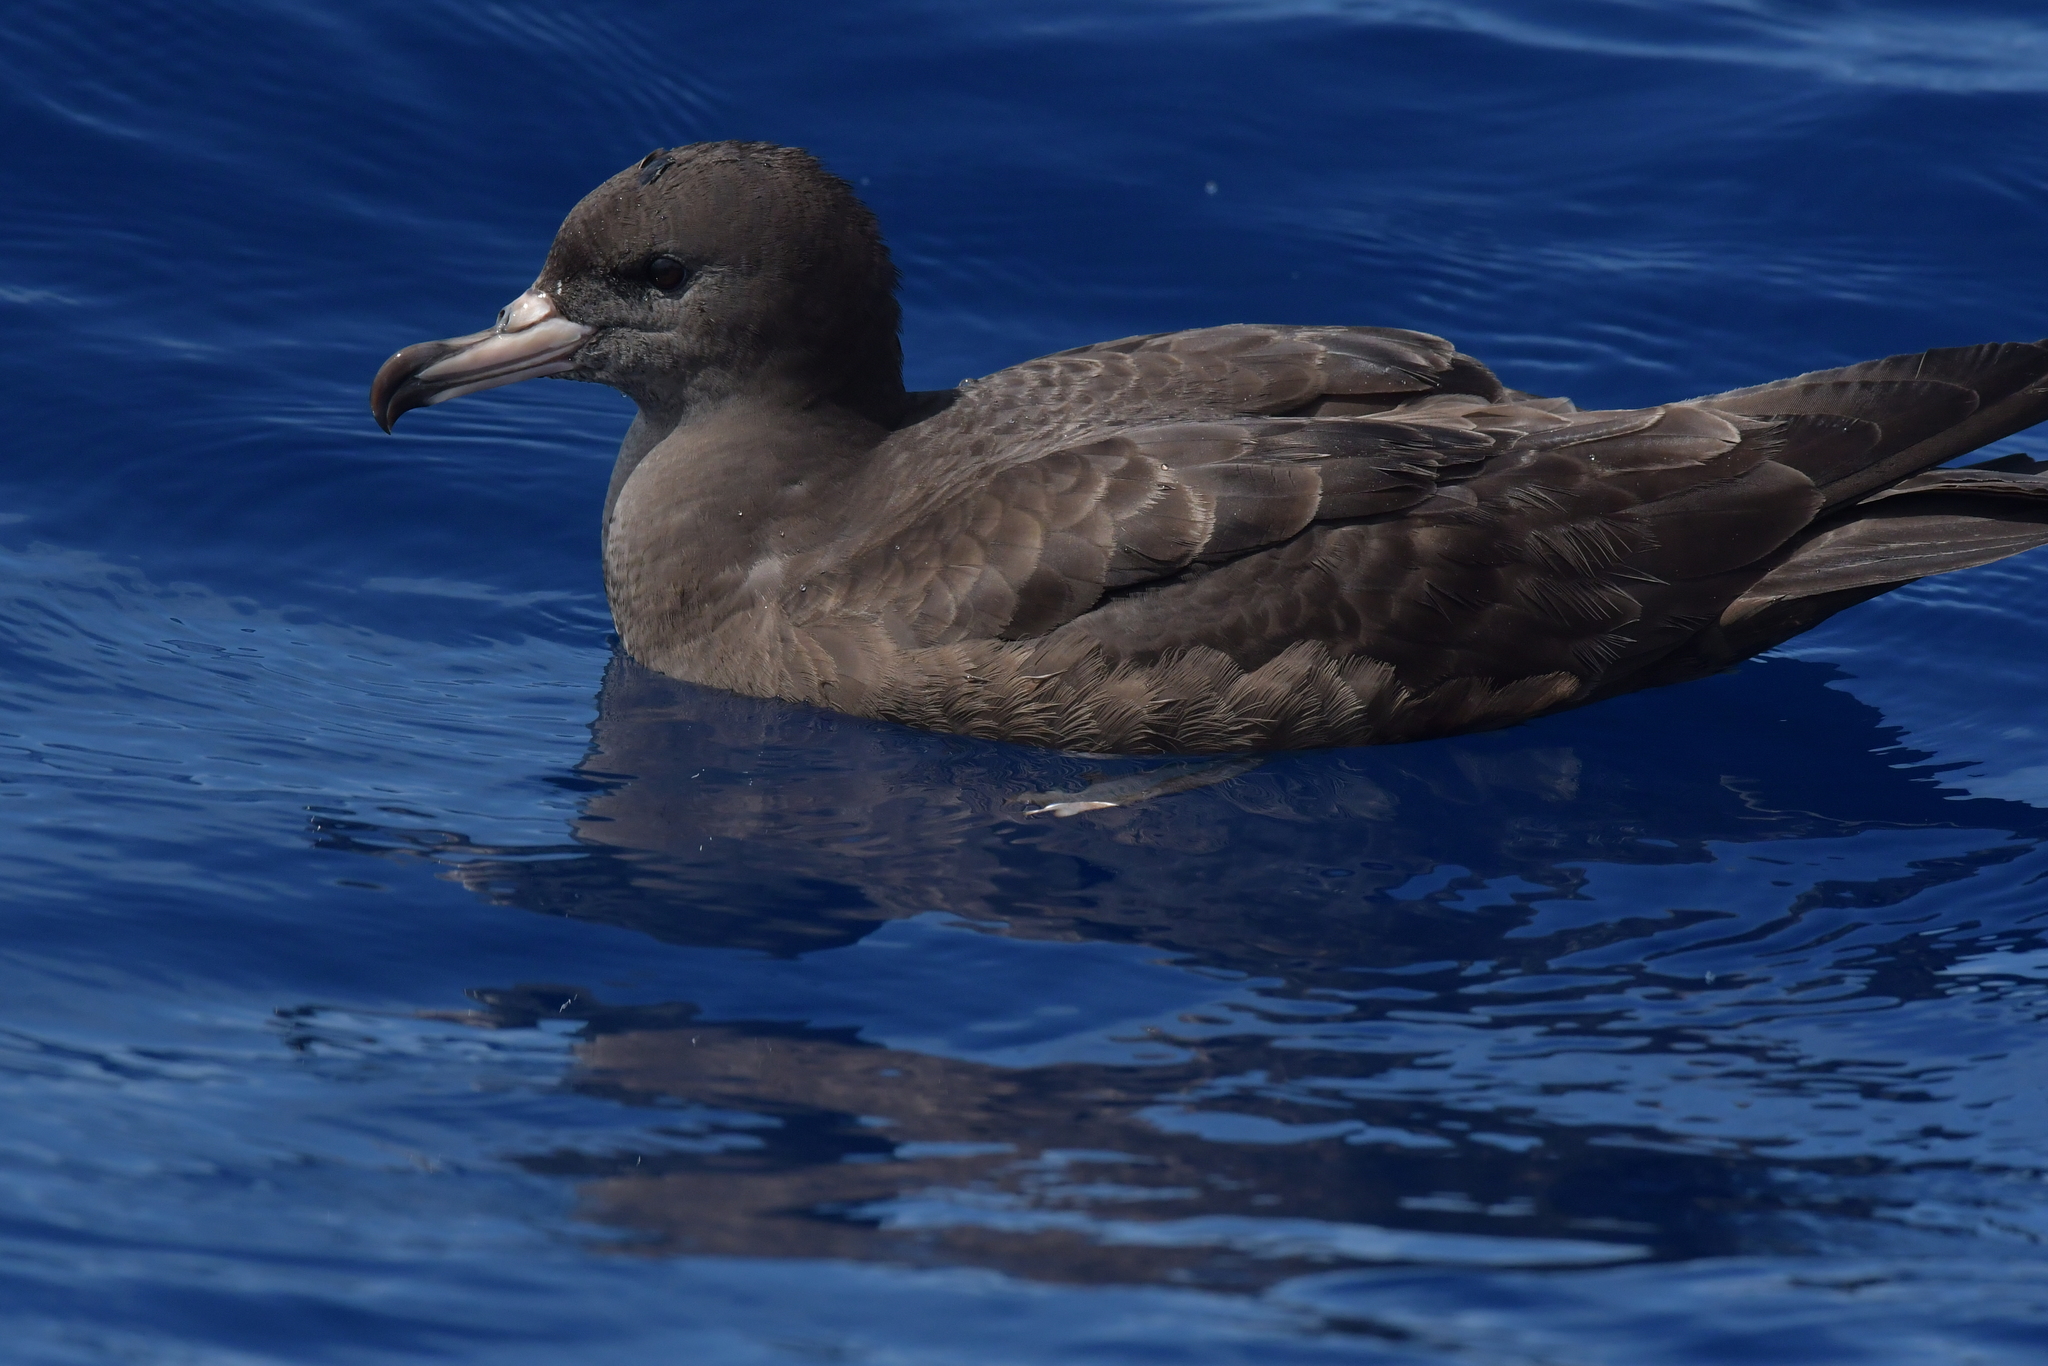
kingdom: Animalia
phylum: Chordata
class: Aves
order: Procellariiformes
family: Procellariidae
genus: Puffinus
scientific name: Puffinus carneipes
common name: Flesh-footed shearwater
